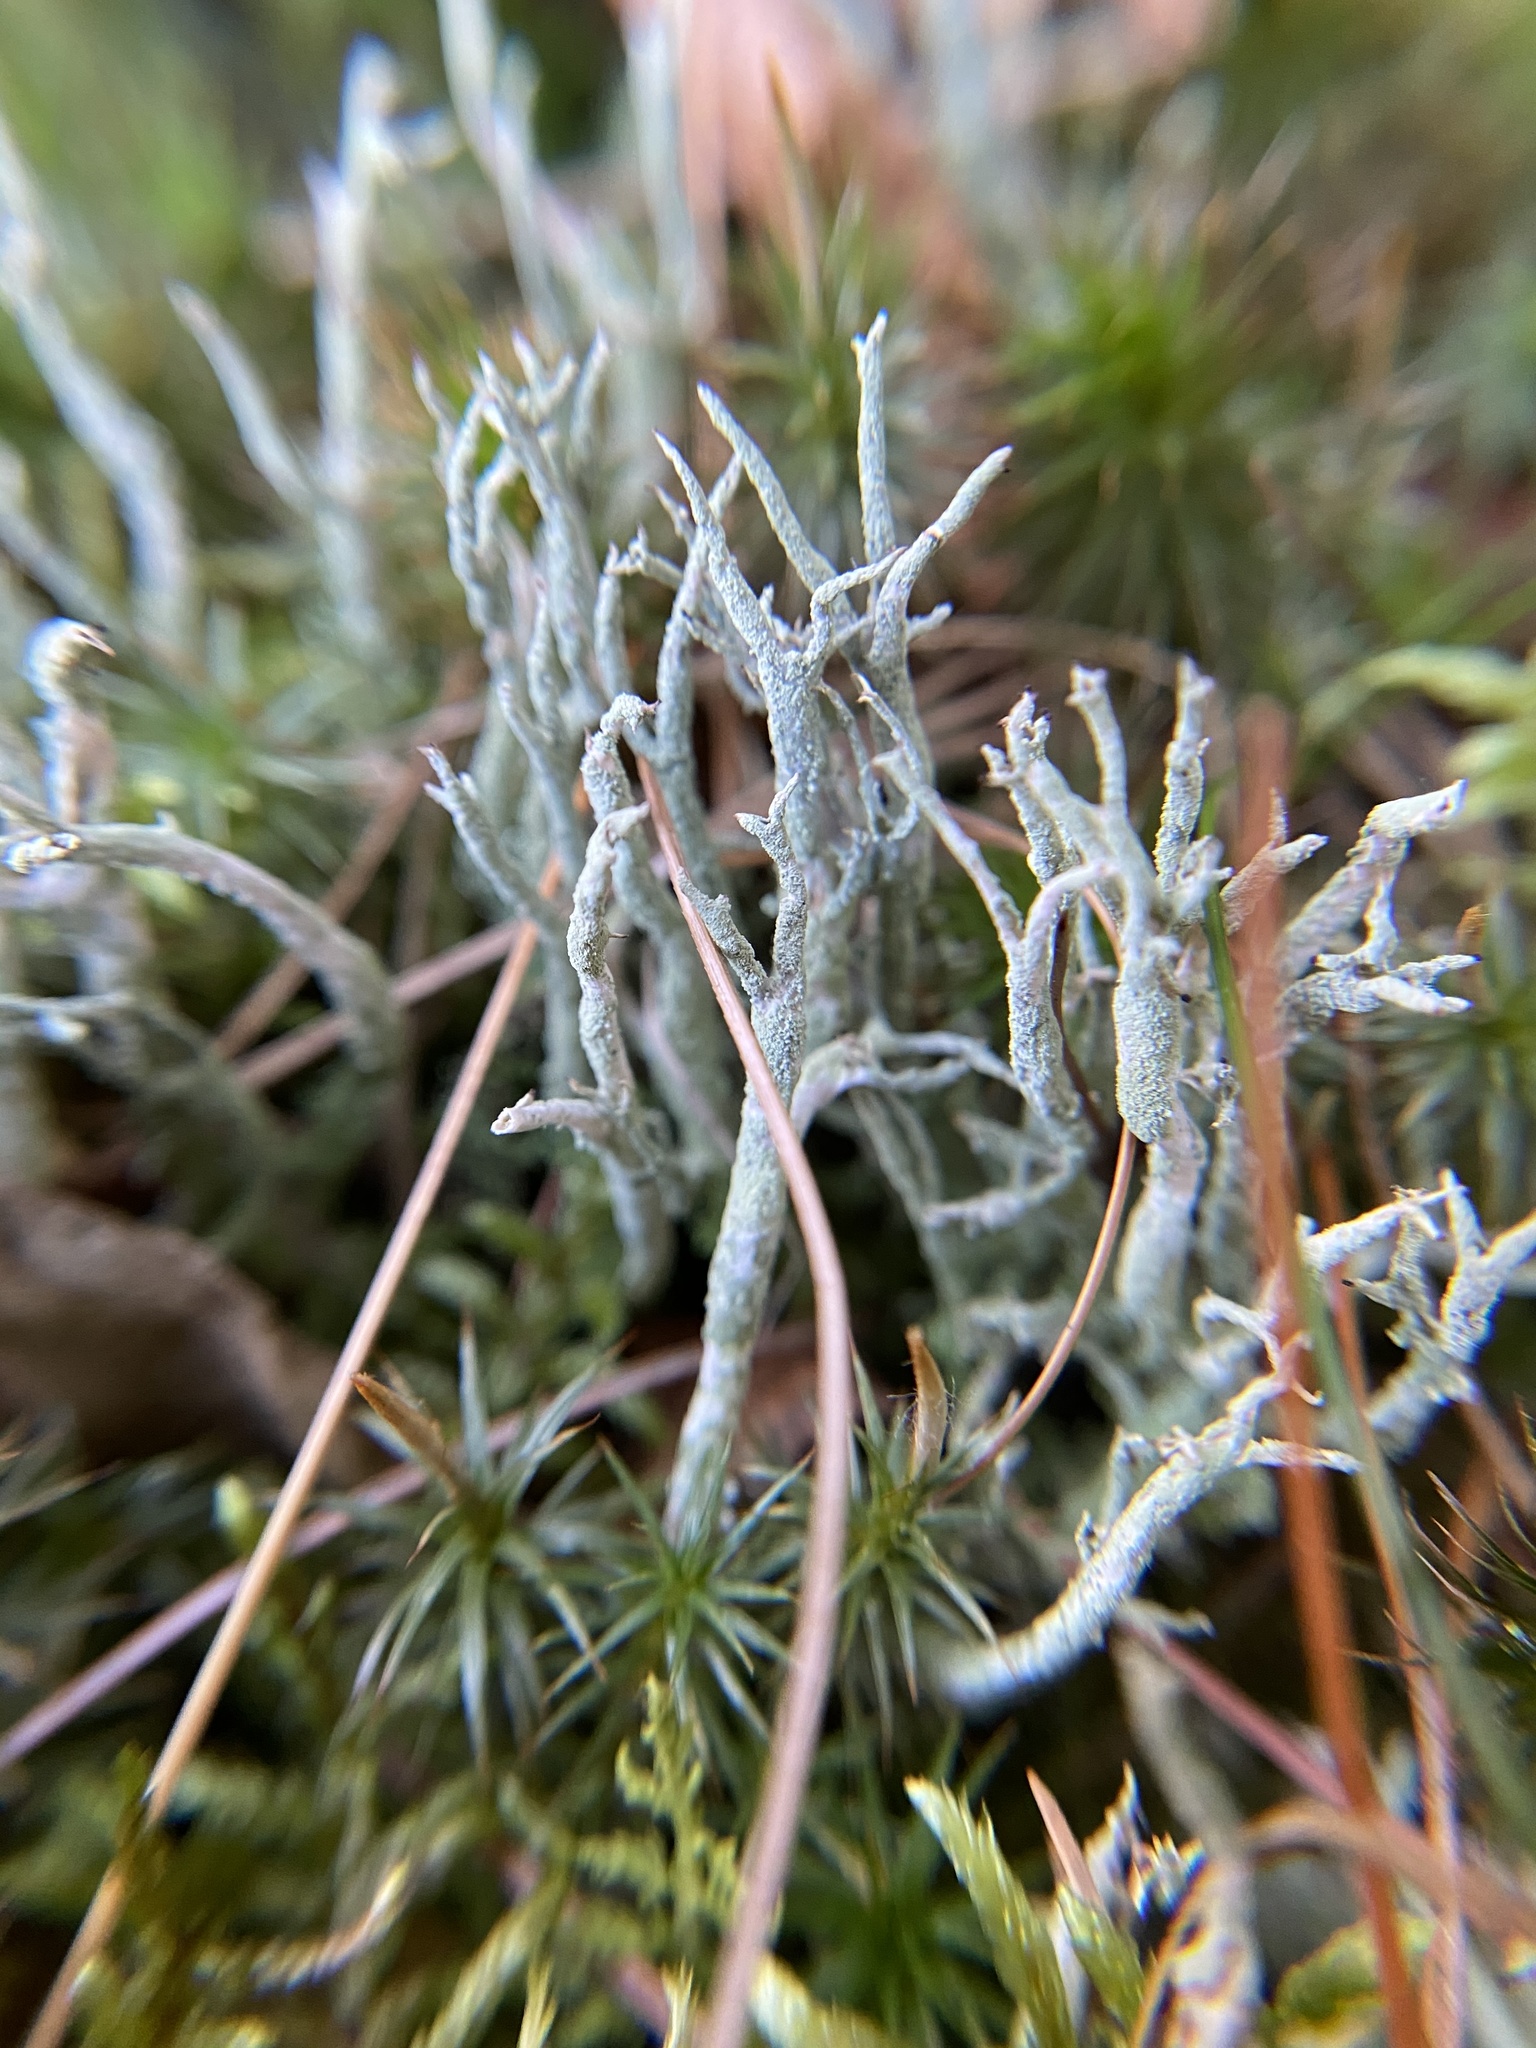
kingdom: Fungi
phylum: Ascomycota
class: Lecanoromycetes
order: Lecanorales
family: Cladoniaceae
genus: Cladonia
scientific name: Cladonia scabriuscula
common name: Mealy forked clad lichen
